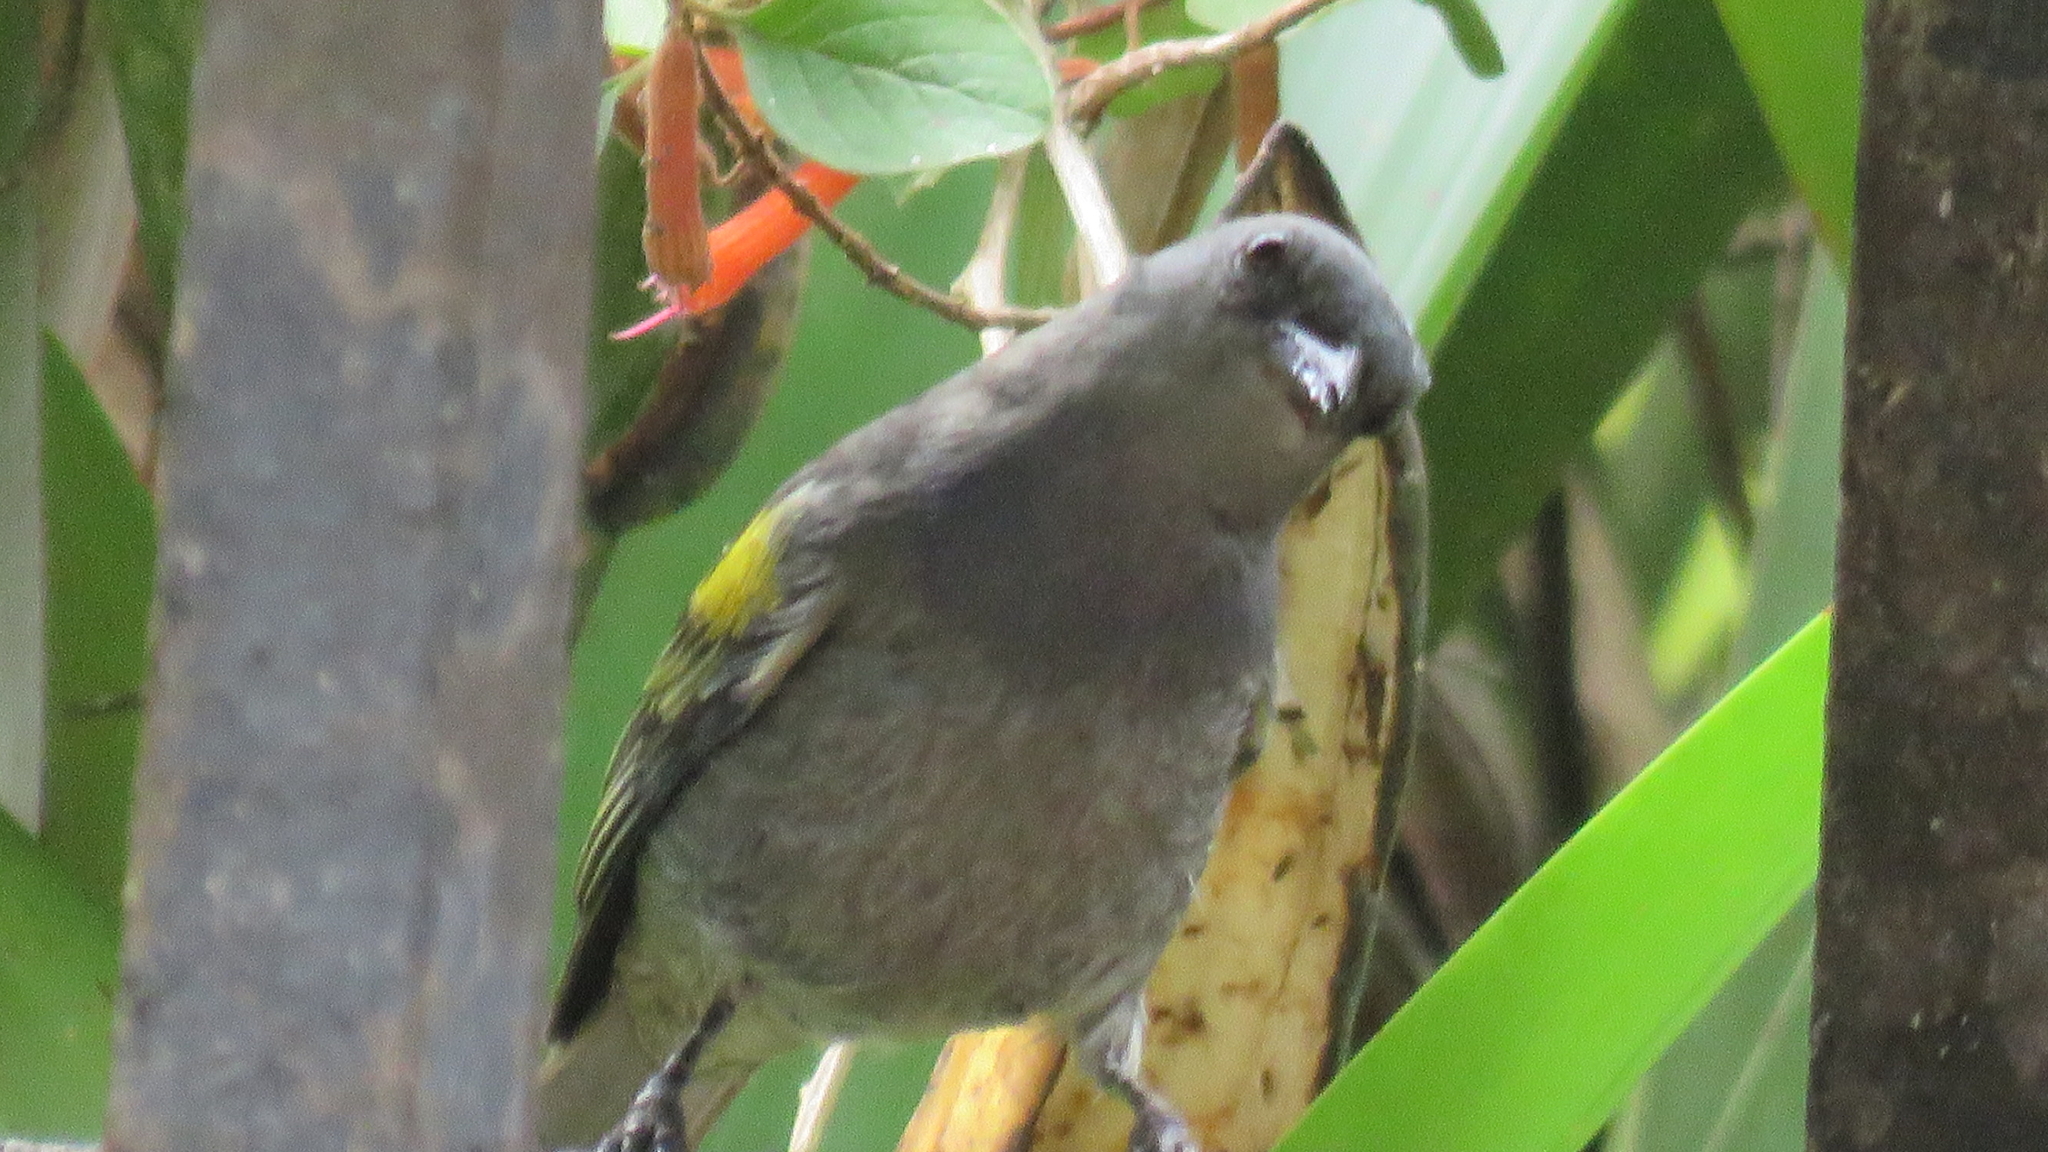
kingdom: Animalia
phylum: Chordata
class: Aves
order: Passeriformes
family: Thraupidae
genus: Thraupis
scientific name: Thraupis ornata
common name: Golden-chevroned tanager
